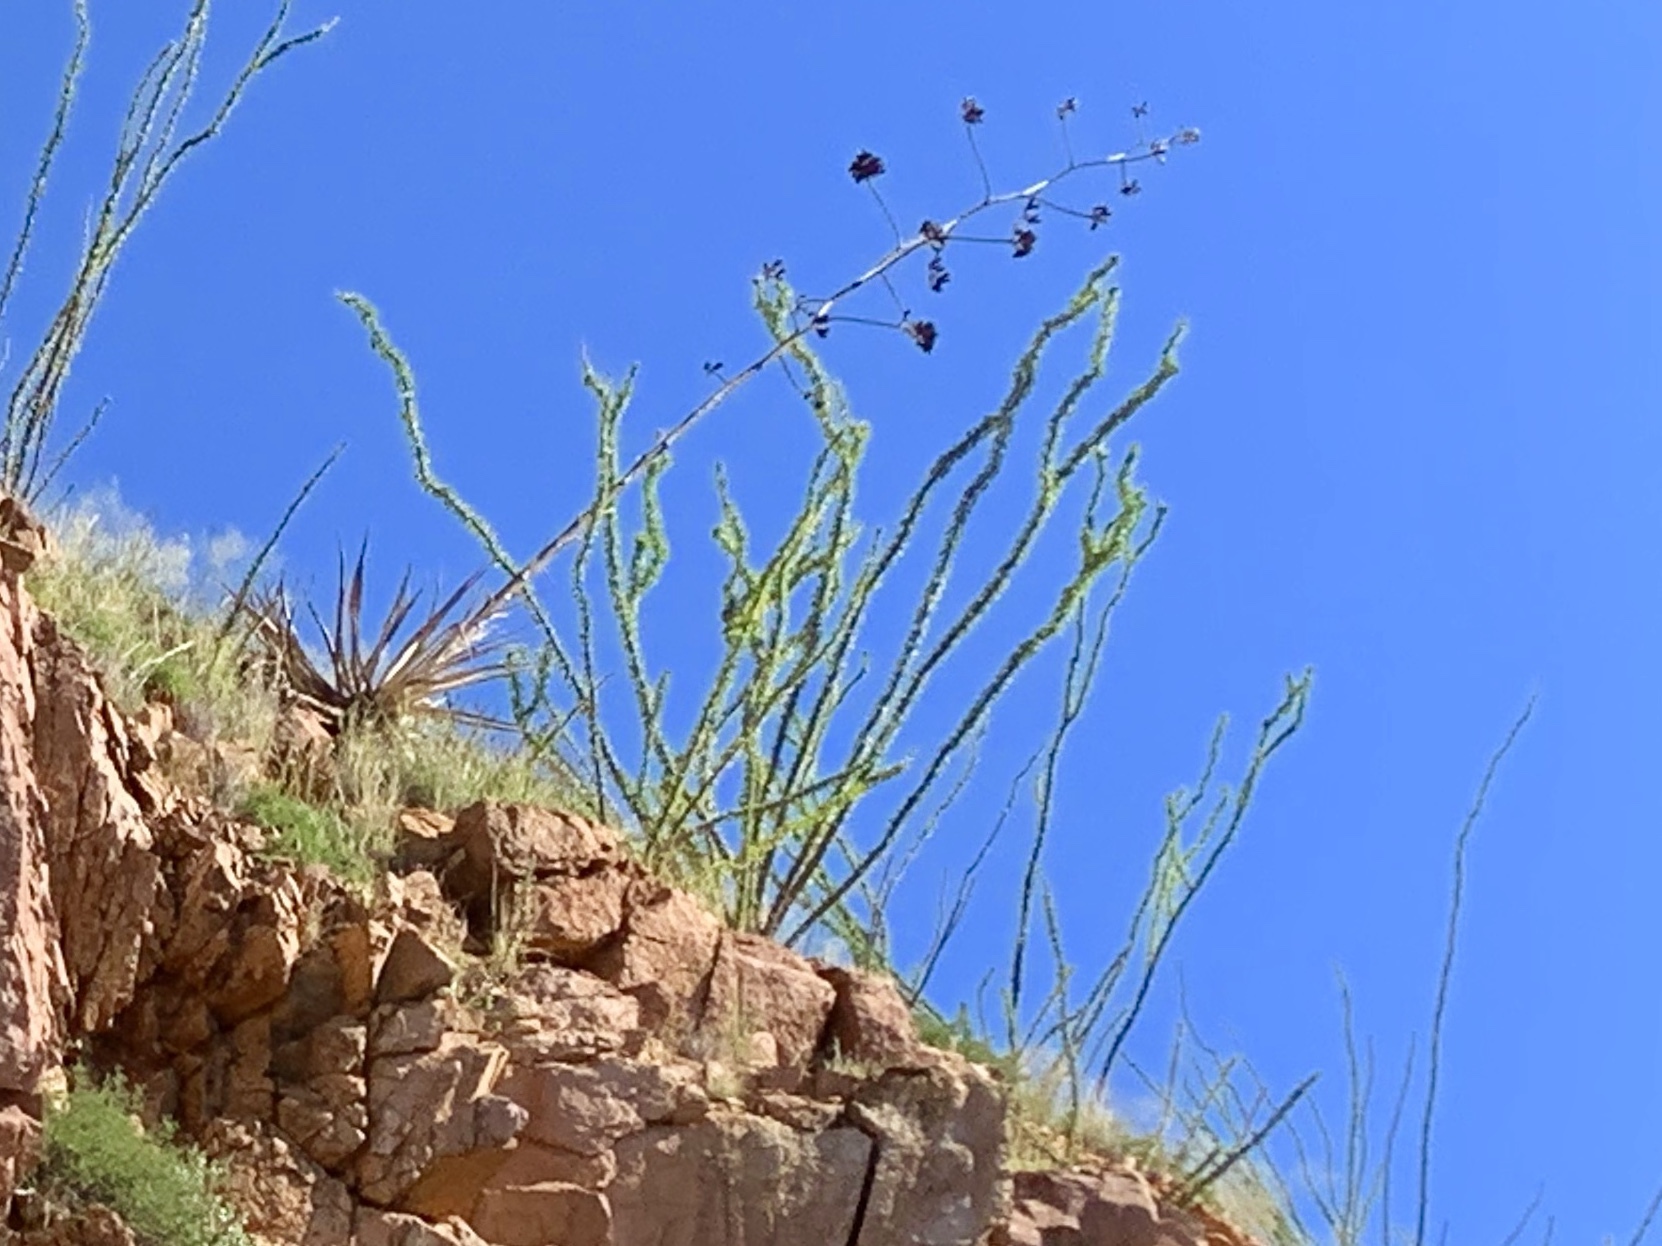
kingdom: Plantae
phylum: Tracheophyta
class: Magnoliopsida
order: Ericales
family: Fouquieriaceae
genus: Fouquieria
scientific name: Fouquieria splendens
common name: Vine-cactus
